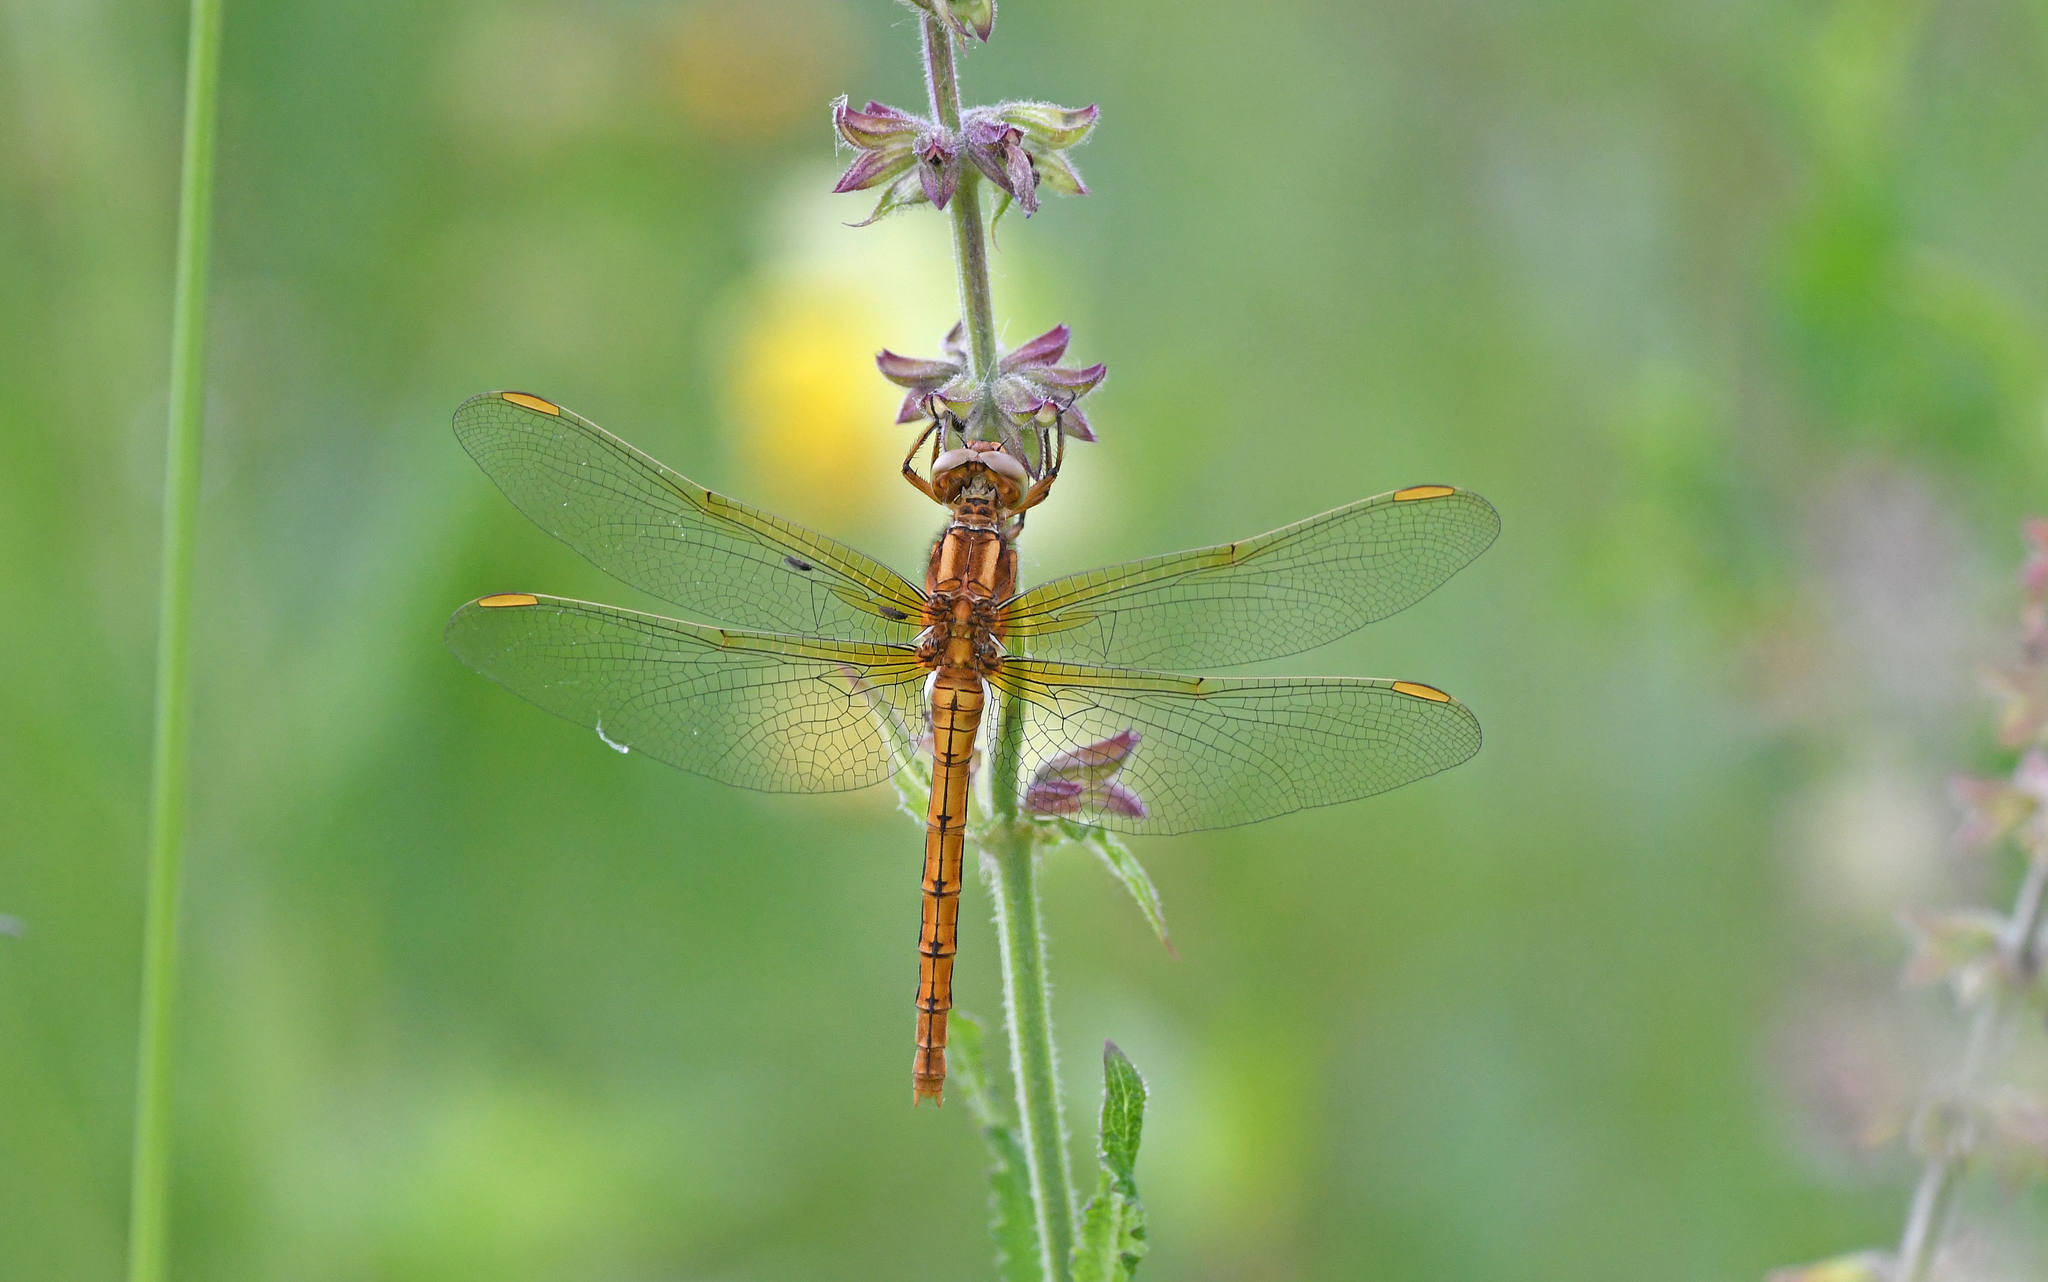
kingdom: Animalia
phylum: Arthropoda
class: Insecta
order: Odonata
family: Libellulidae
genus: Orthetrum
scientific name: Orthetrum coerulescens
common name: Keeled skimmer
